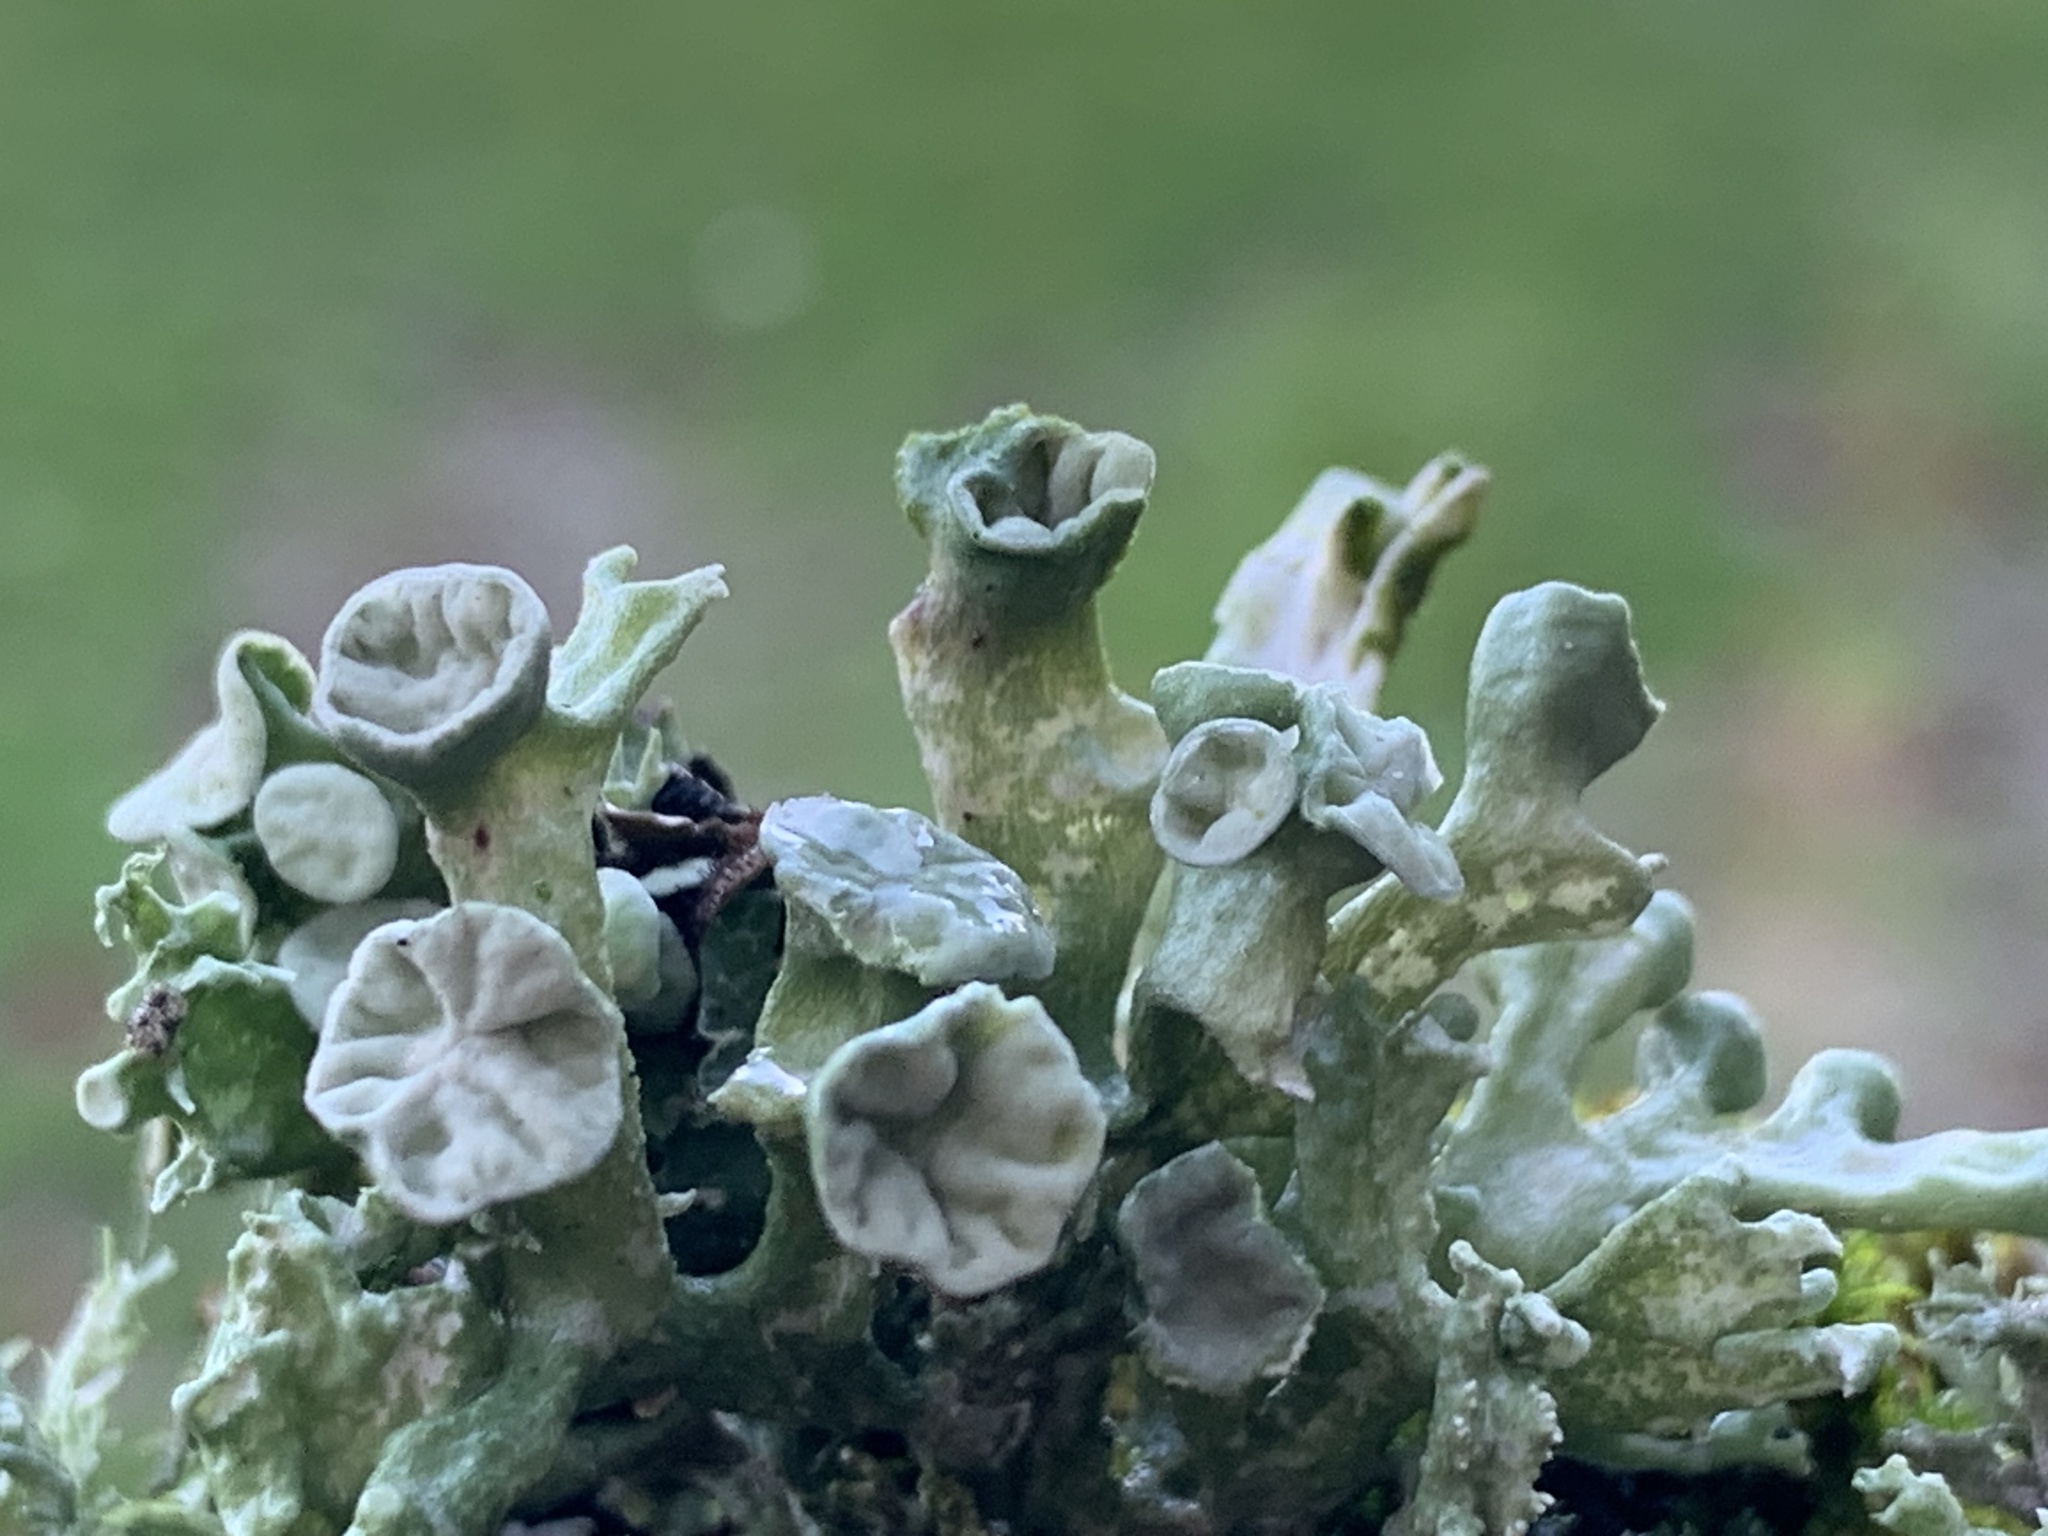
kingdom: Fungi
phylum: Ascomycota
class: Lecanoromycetes
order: Lecanorales
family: Ramalinaceae
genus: Ramalina
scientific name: Ramalina fastigiata
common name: Dotted ribbon lichen
